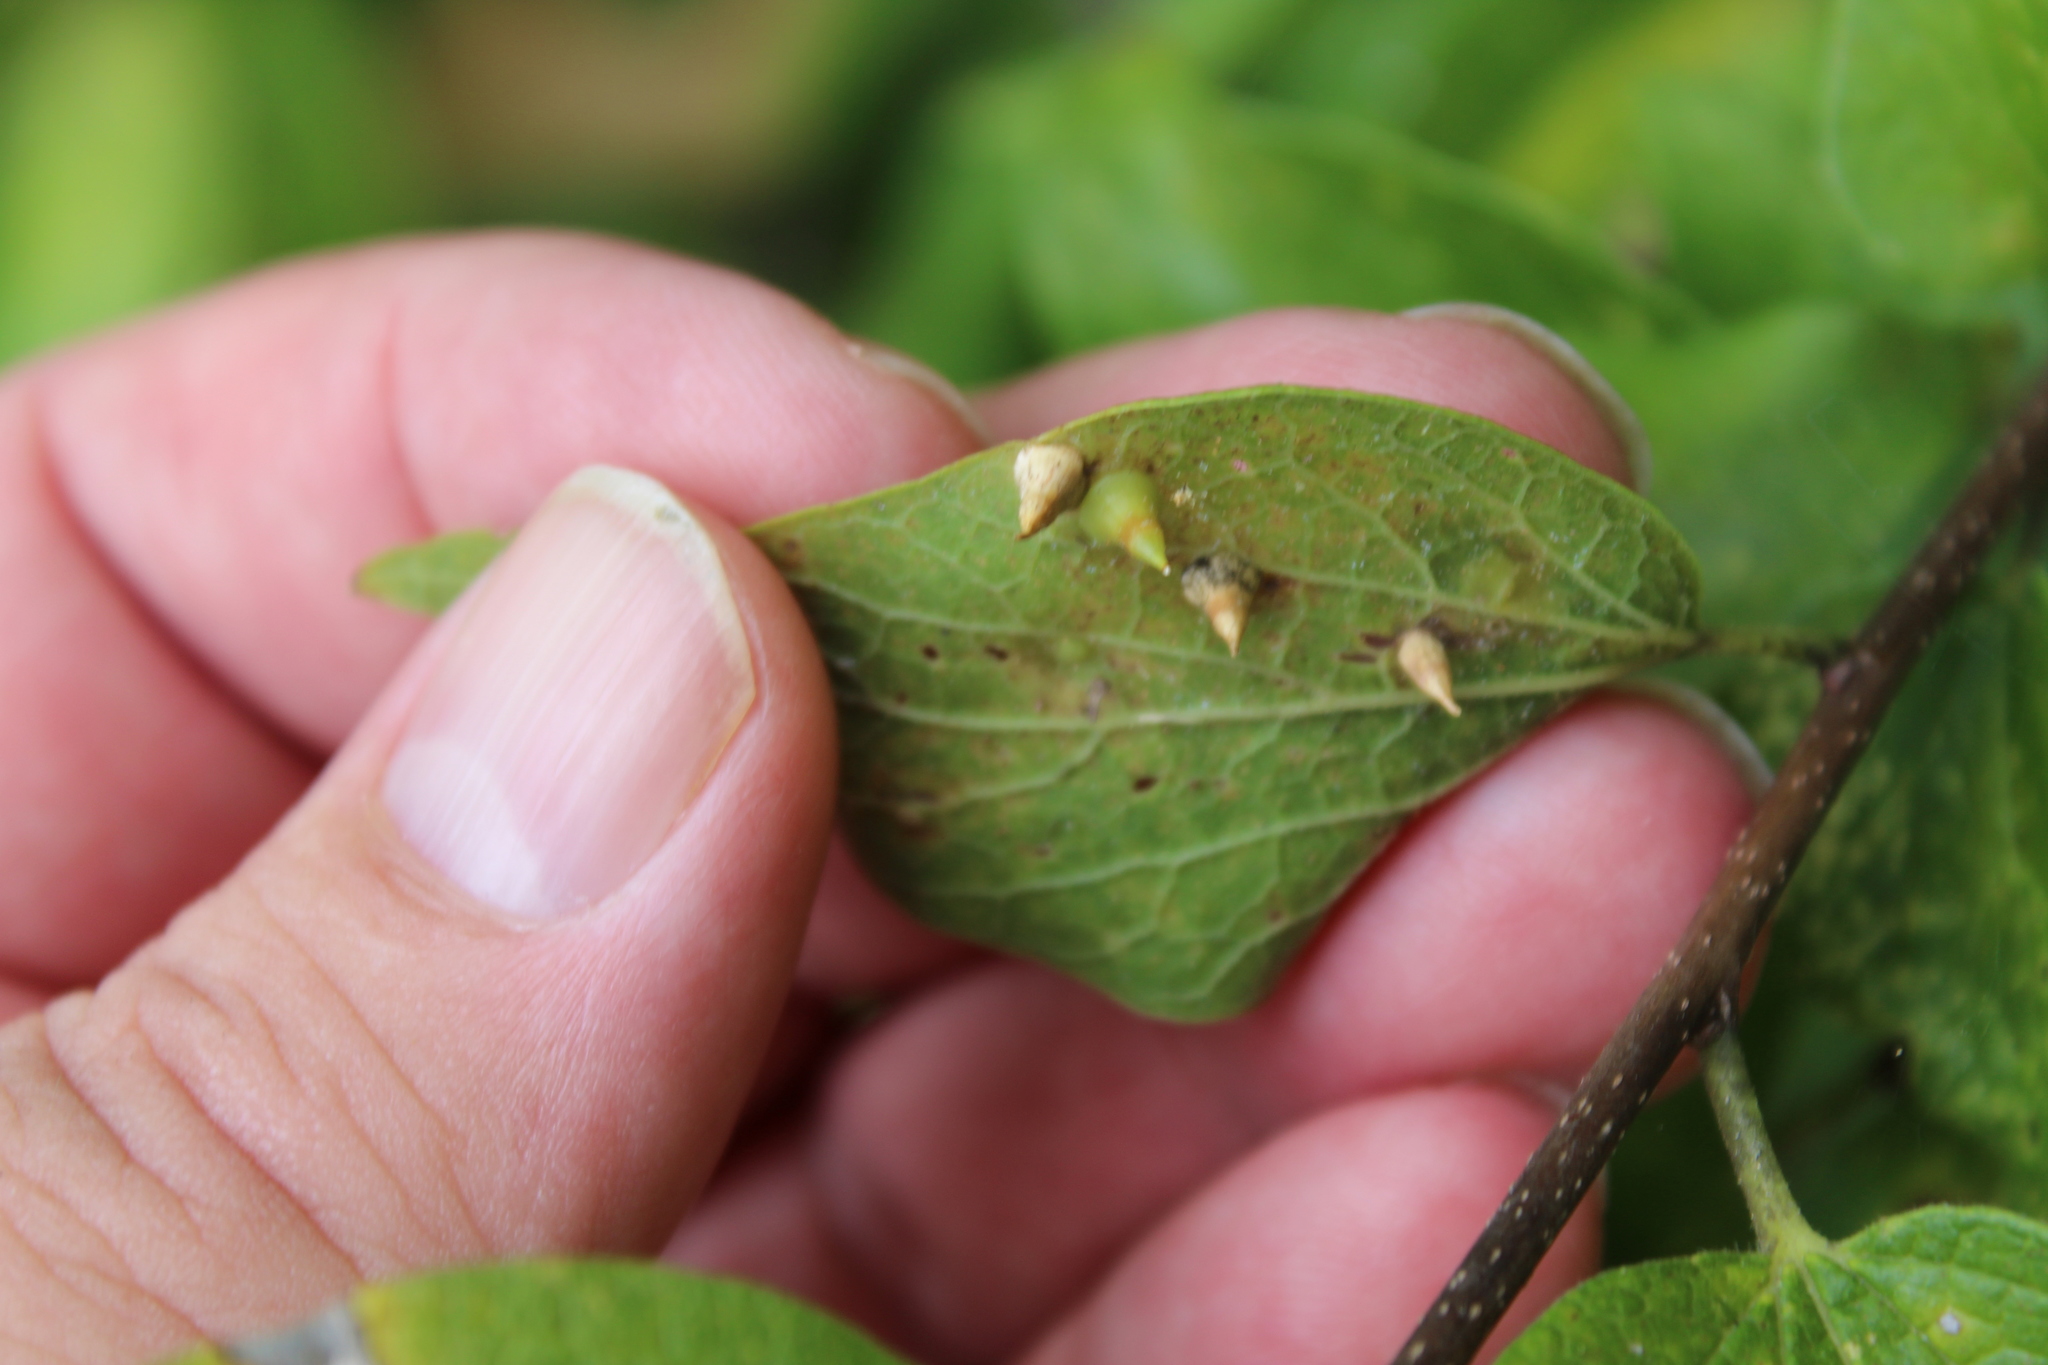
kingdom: Animalia
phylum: Arthropoda
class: Insecta
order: Diptera
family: Cecidomyiidae
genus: Celticecis
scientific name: Celticecis spiniformis
